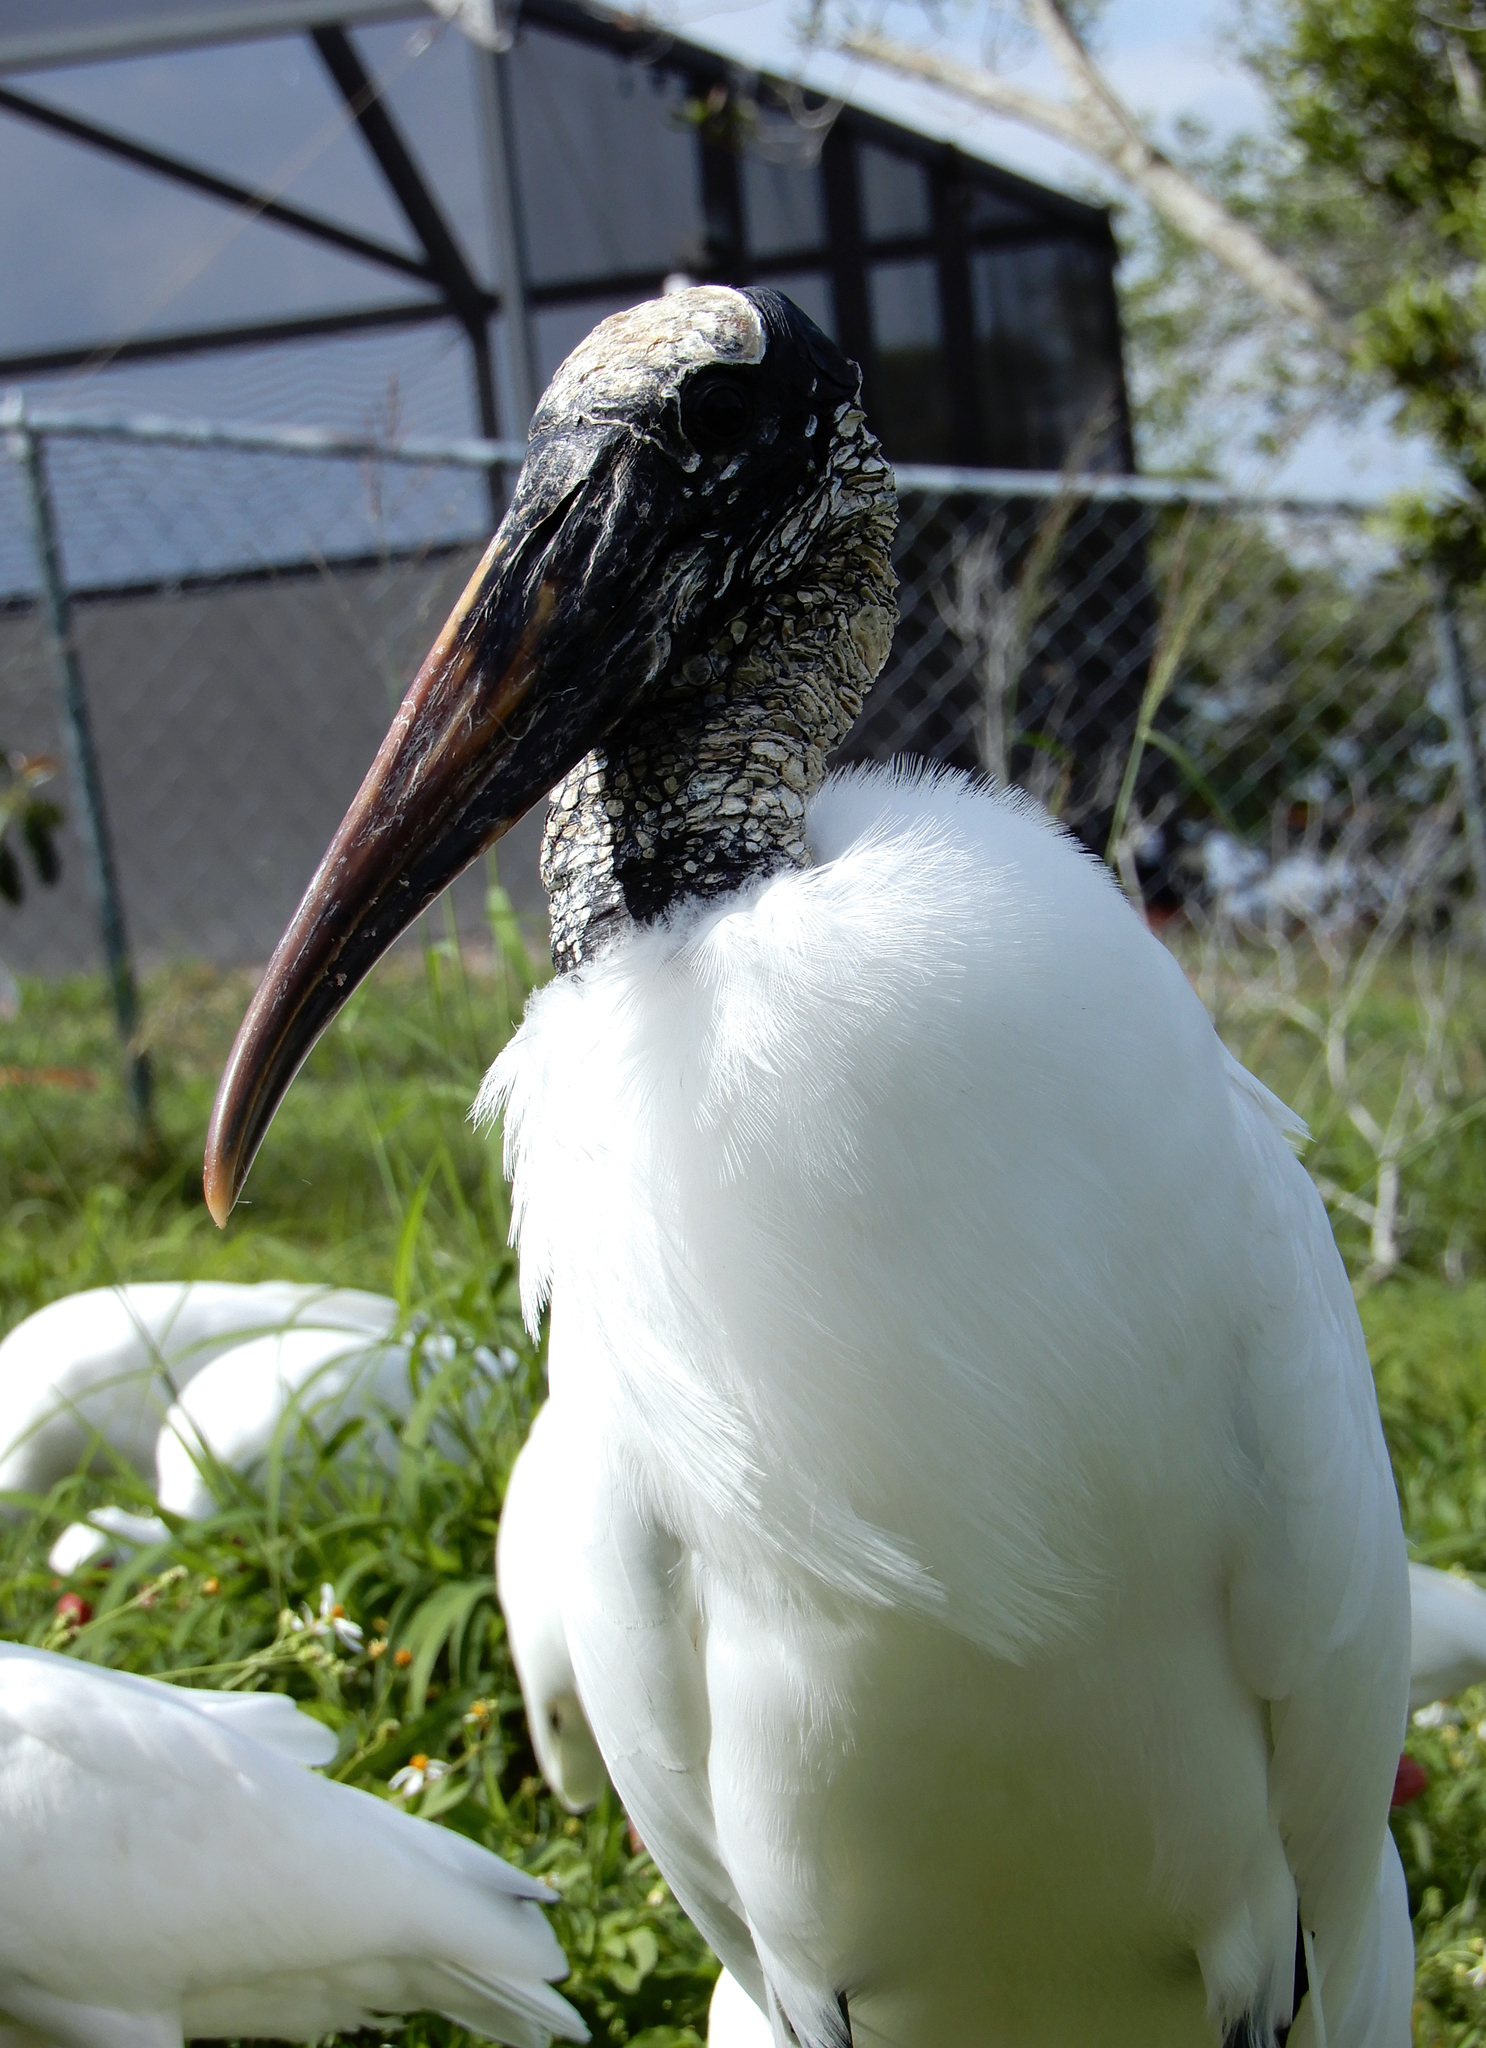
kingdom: Animalia
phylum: Chordata
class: Aves
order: Ciconiiformes
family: Ciconiidae
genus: Mycteria
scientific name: Mycteria americana
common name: Wood stork
